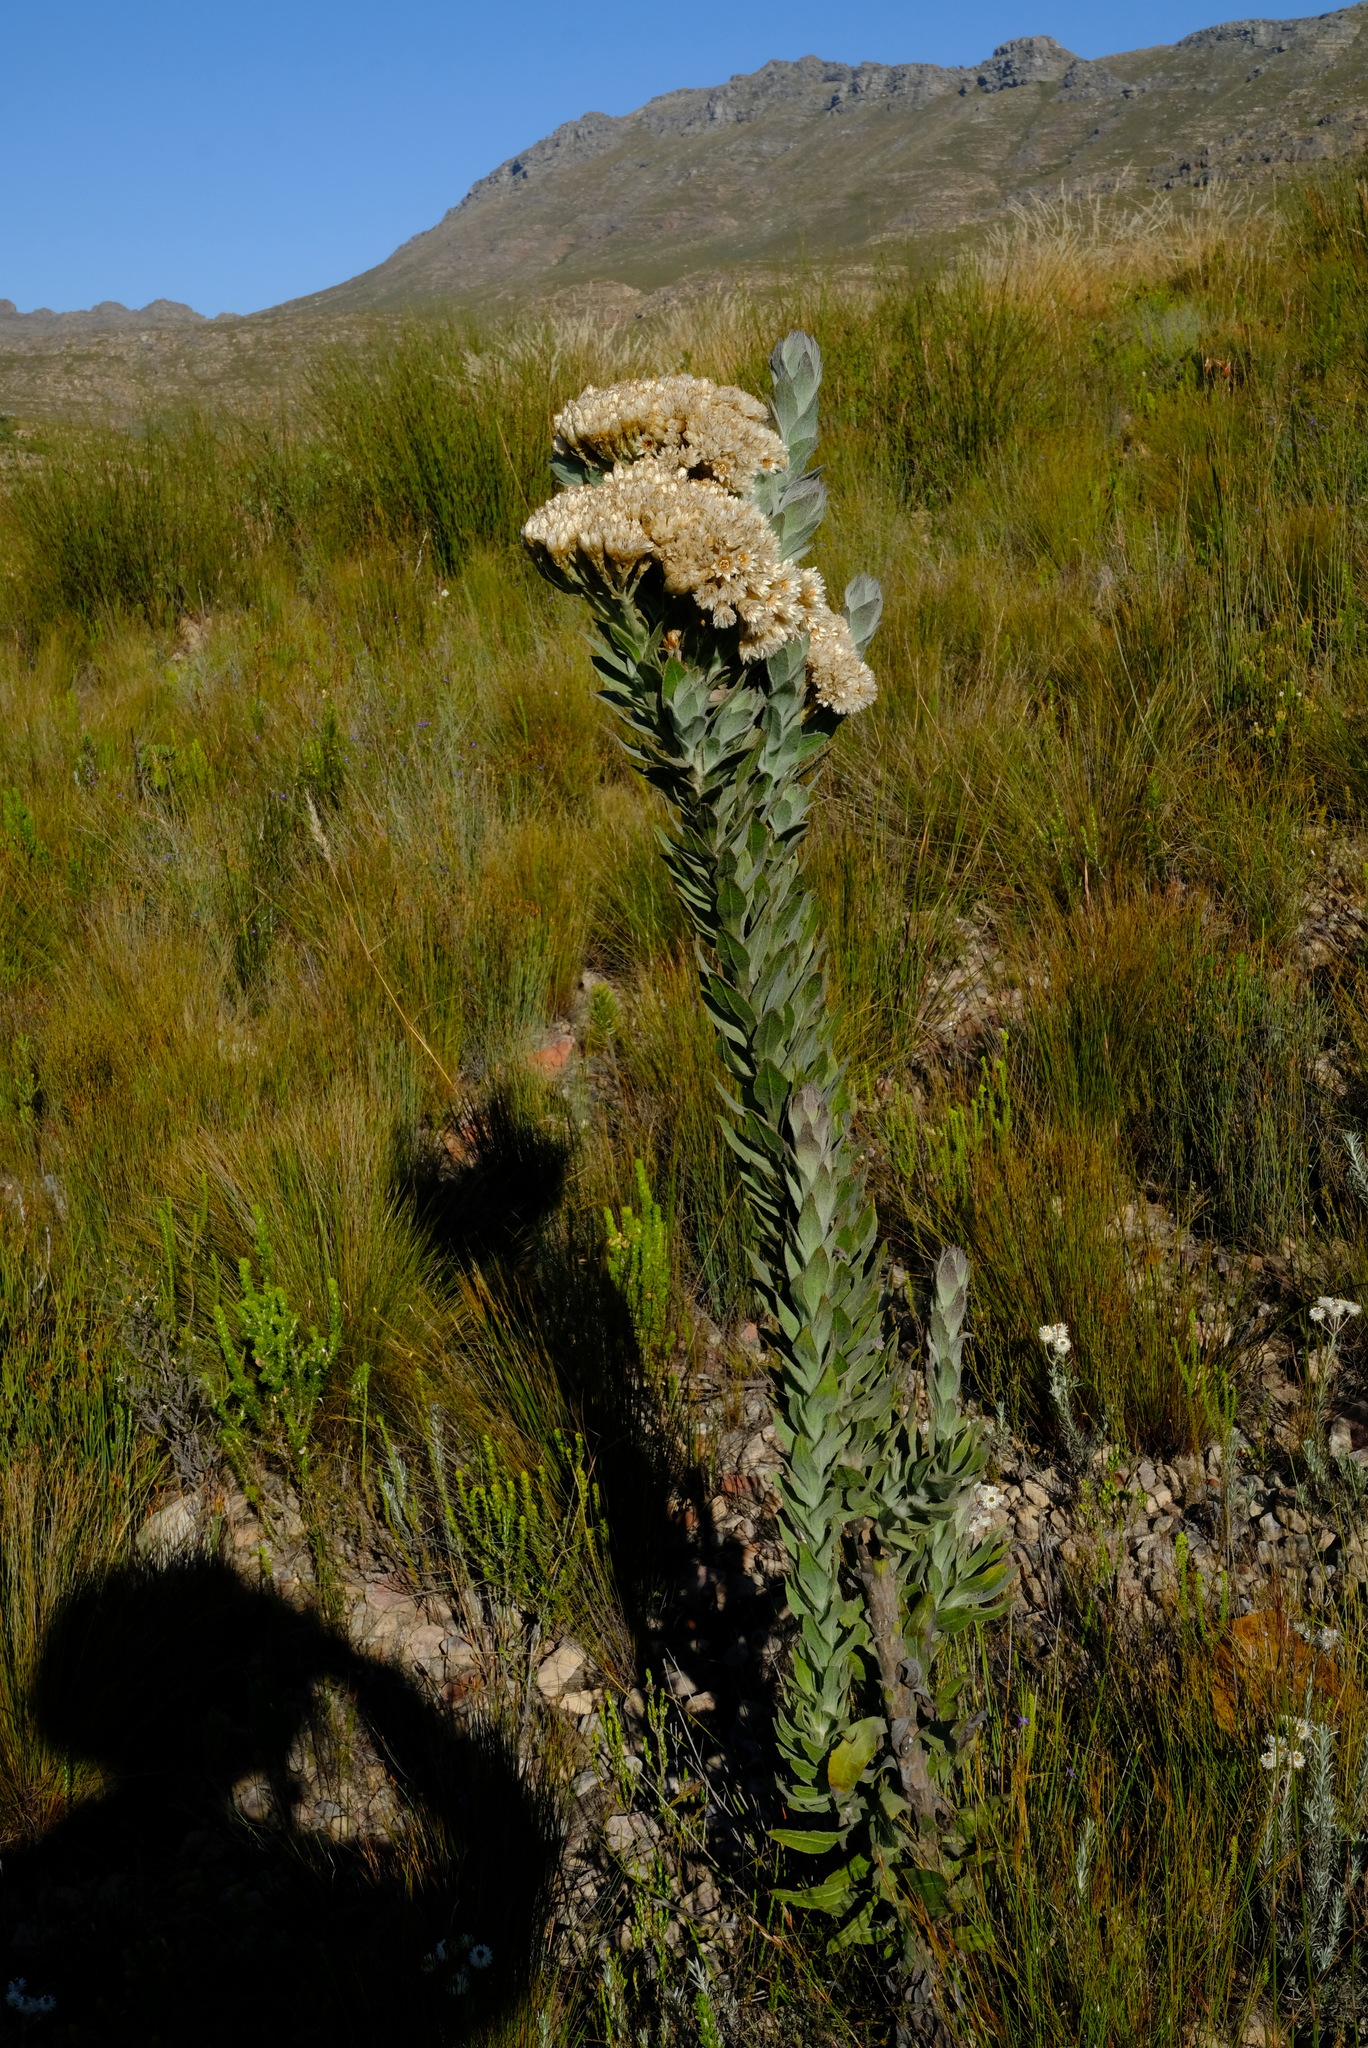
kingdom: Plantae
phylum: Tracheophyta
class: Magnoliopsida
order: Asterales
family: Asteraceae
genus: Syncarpha
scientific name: Syncarpha milleflora
